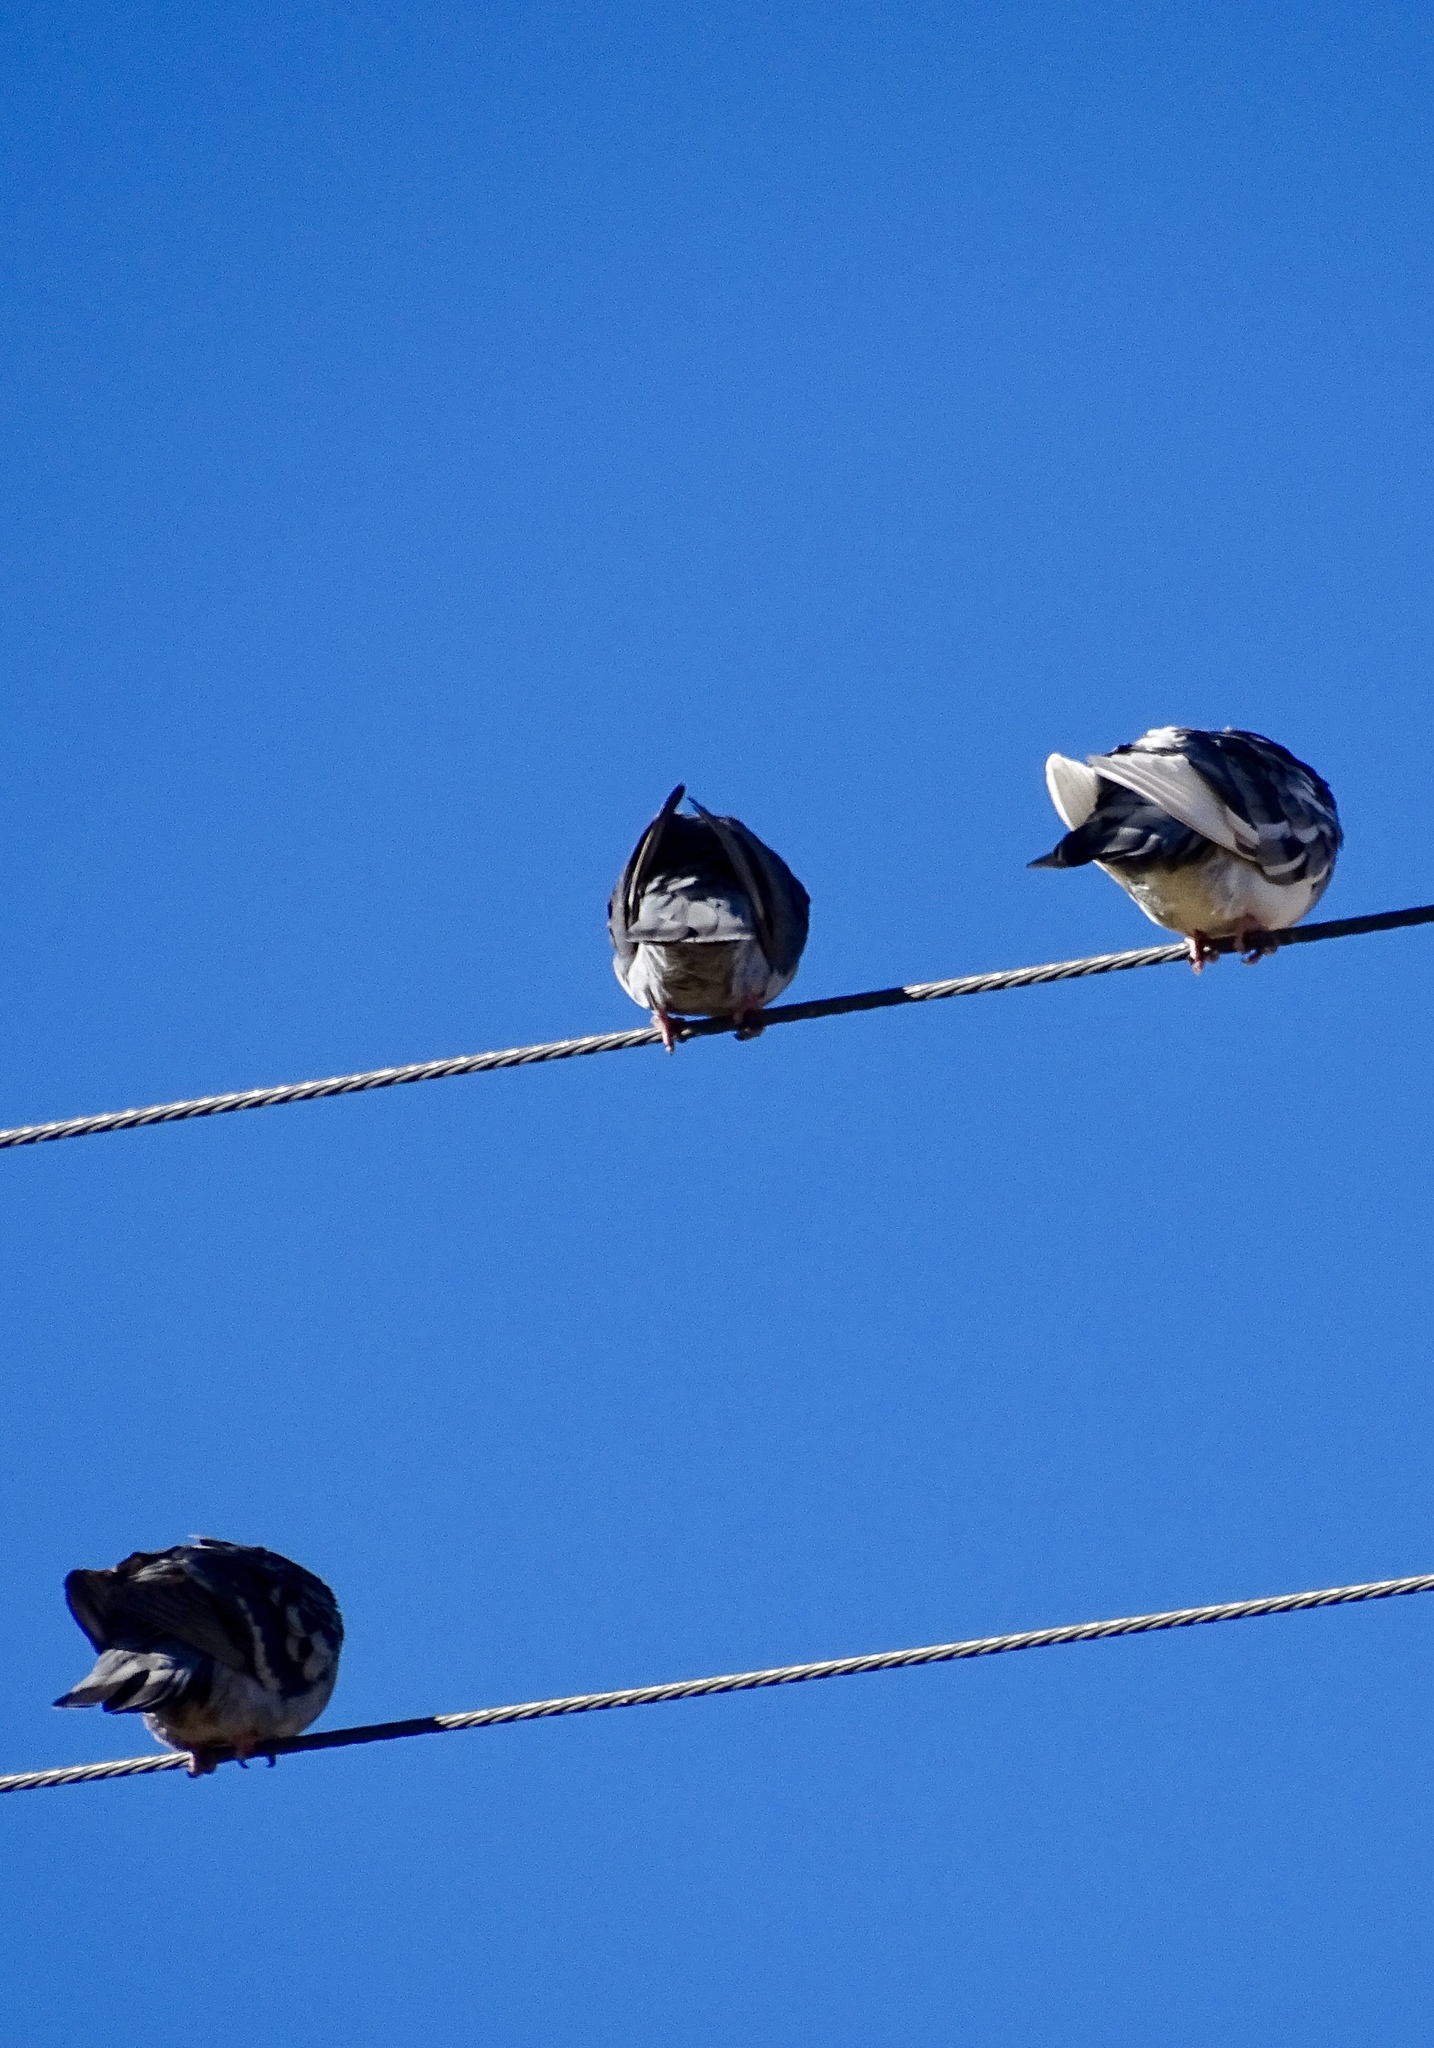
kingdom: Animalia
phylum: Chordata
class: Aves
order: Columbiformes
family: Columbidae
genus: Columba
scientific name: Columba livia
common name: Rock pigeon
